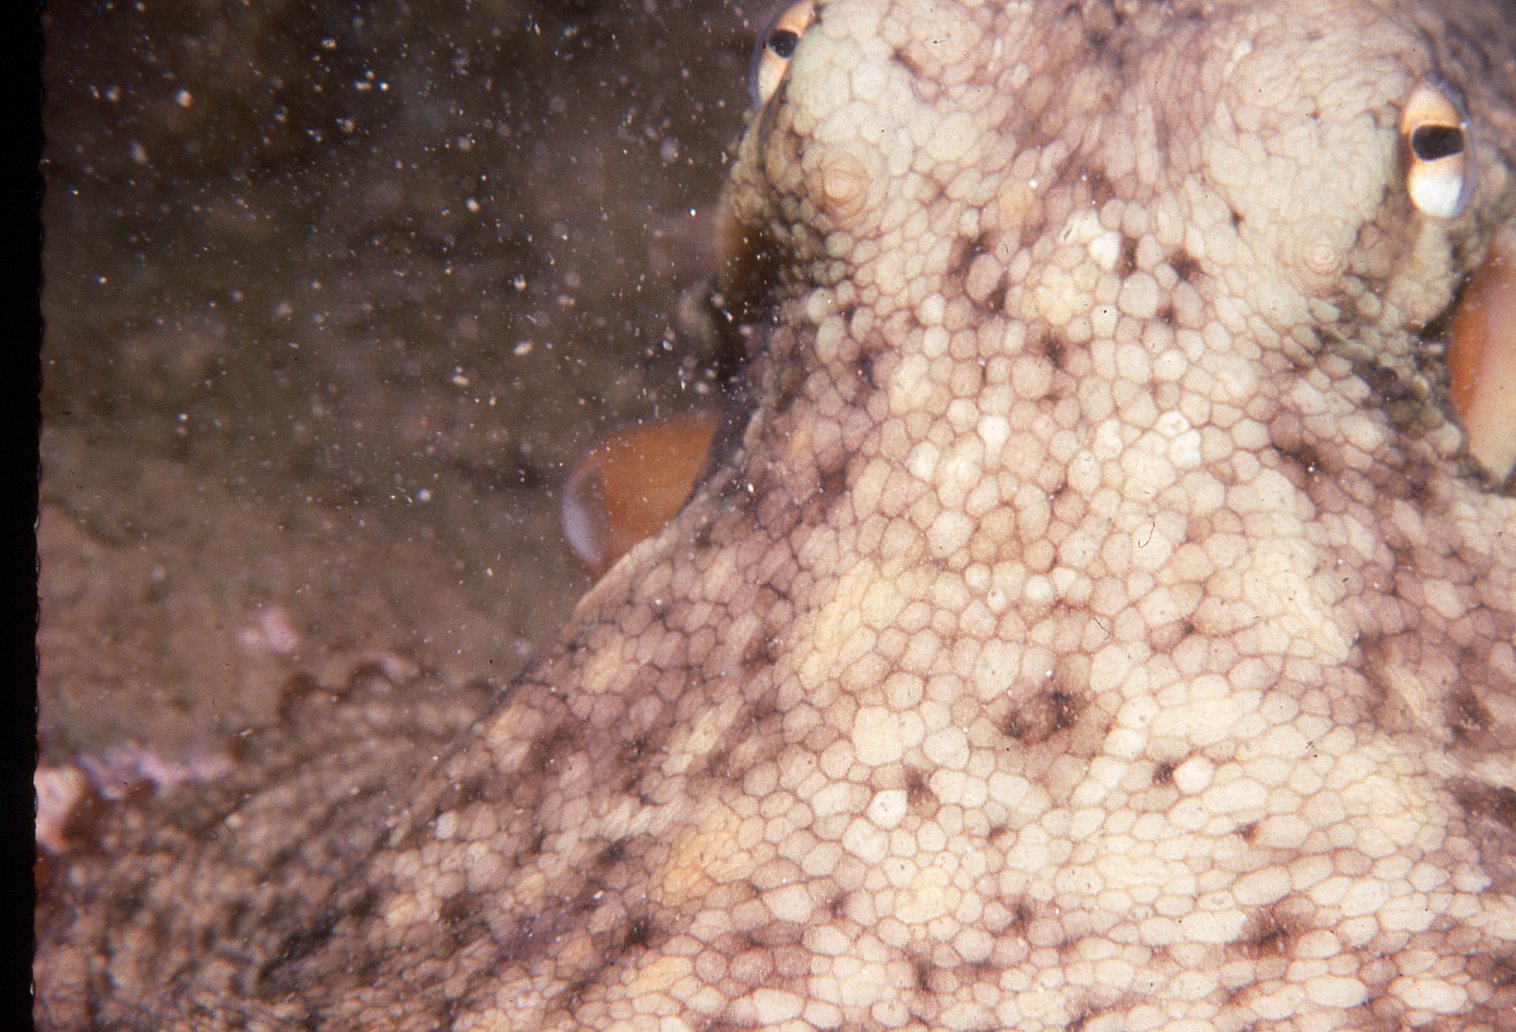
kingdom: Animalia
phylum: Mollusca
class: Cephalopoda
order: Octopoda
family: Octopodidae
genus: Octopus
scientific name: Octopus tetricus
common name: Sydney octopus
